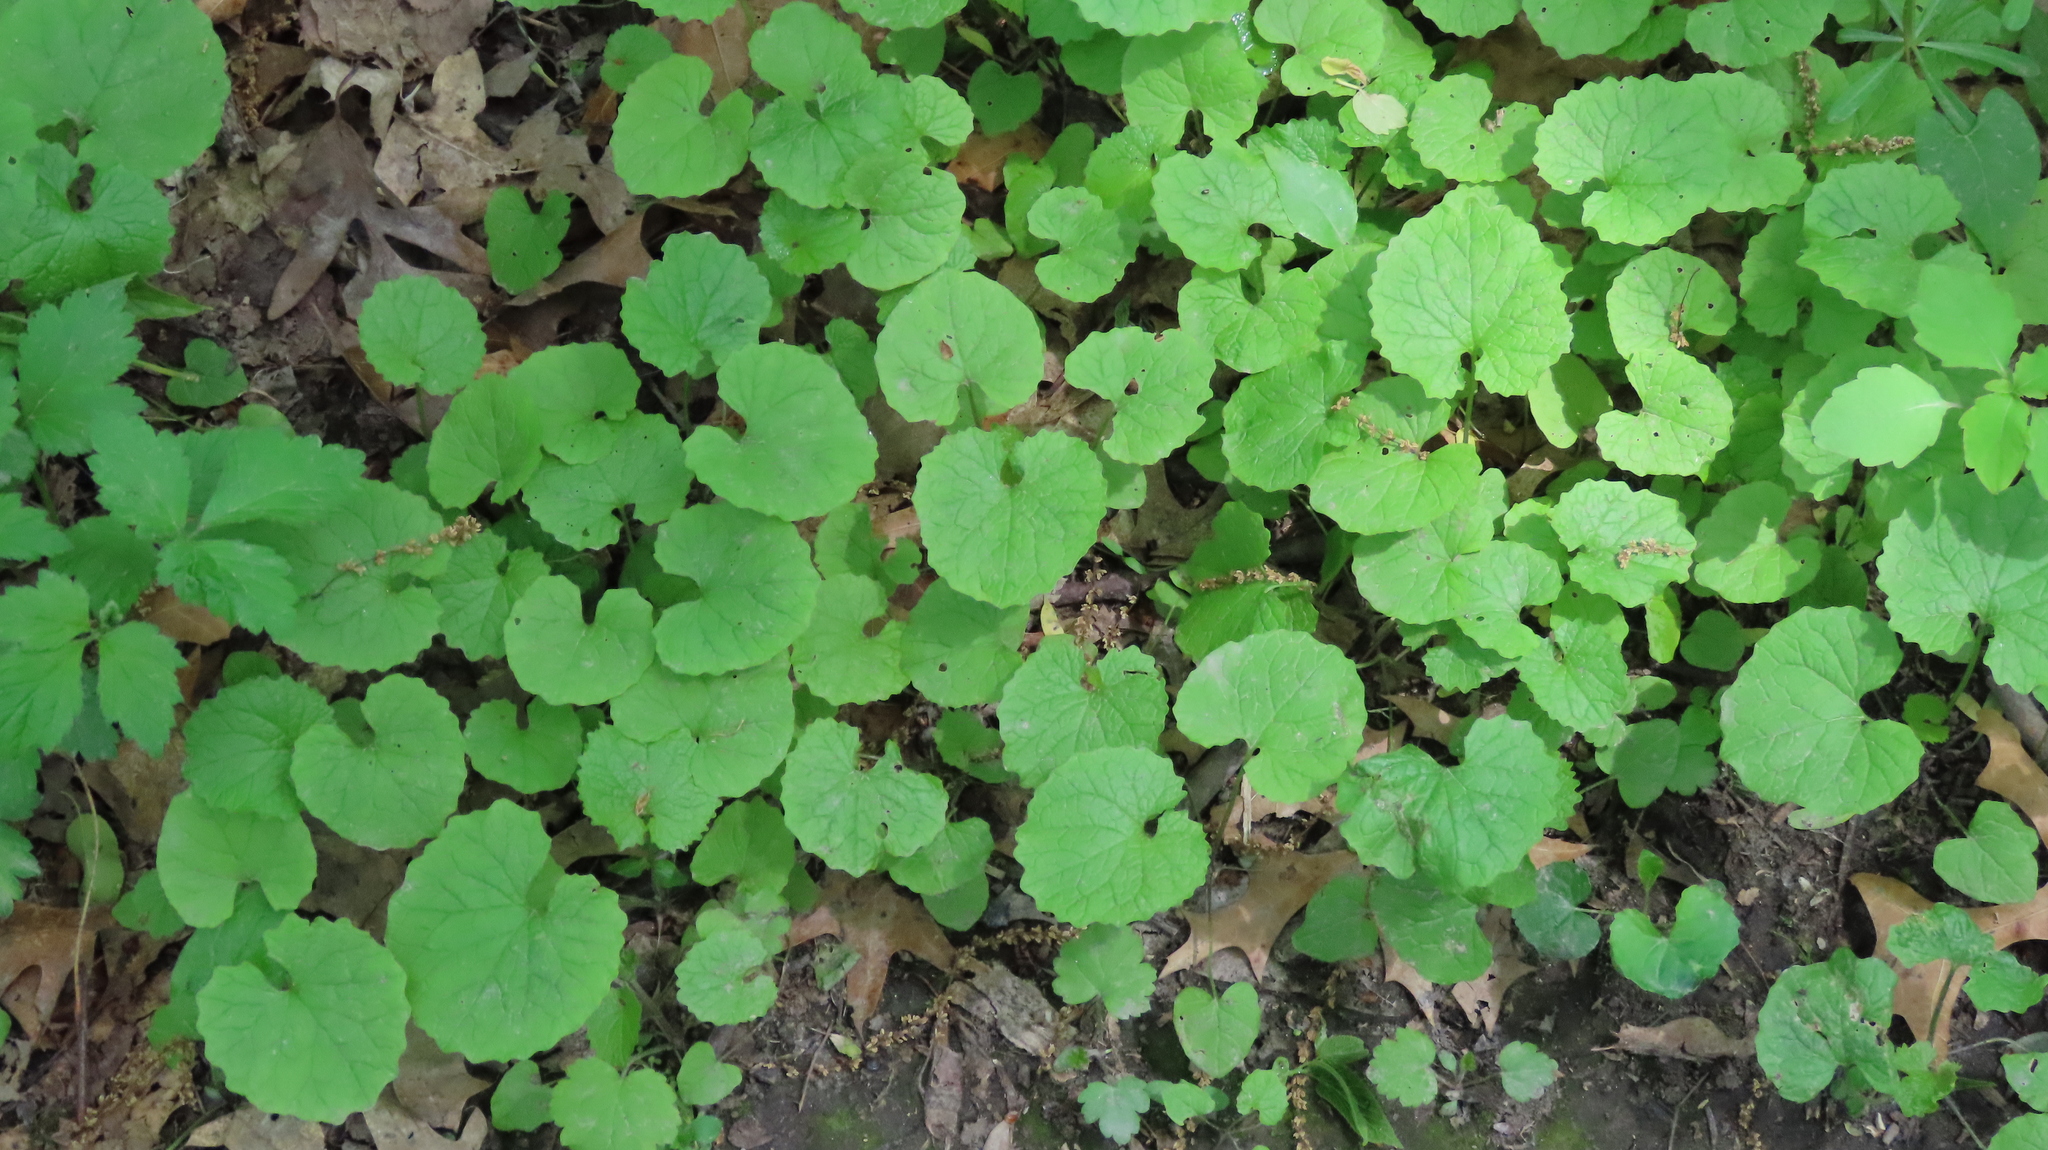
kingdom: Plantae
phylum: Tracheophyta
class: Magnoliopsida
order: Brassicales
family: Brassicaceae
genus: Alliaria
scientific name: Alliaria petiolata
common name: Garlic mustard
